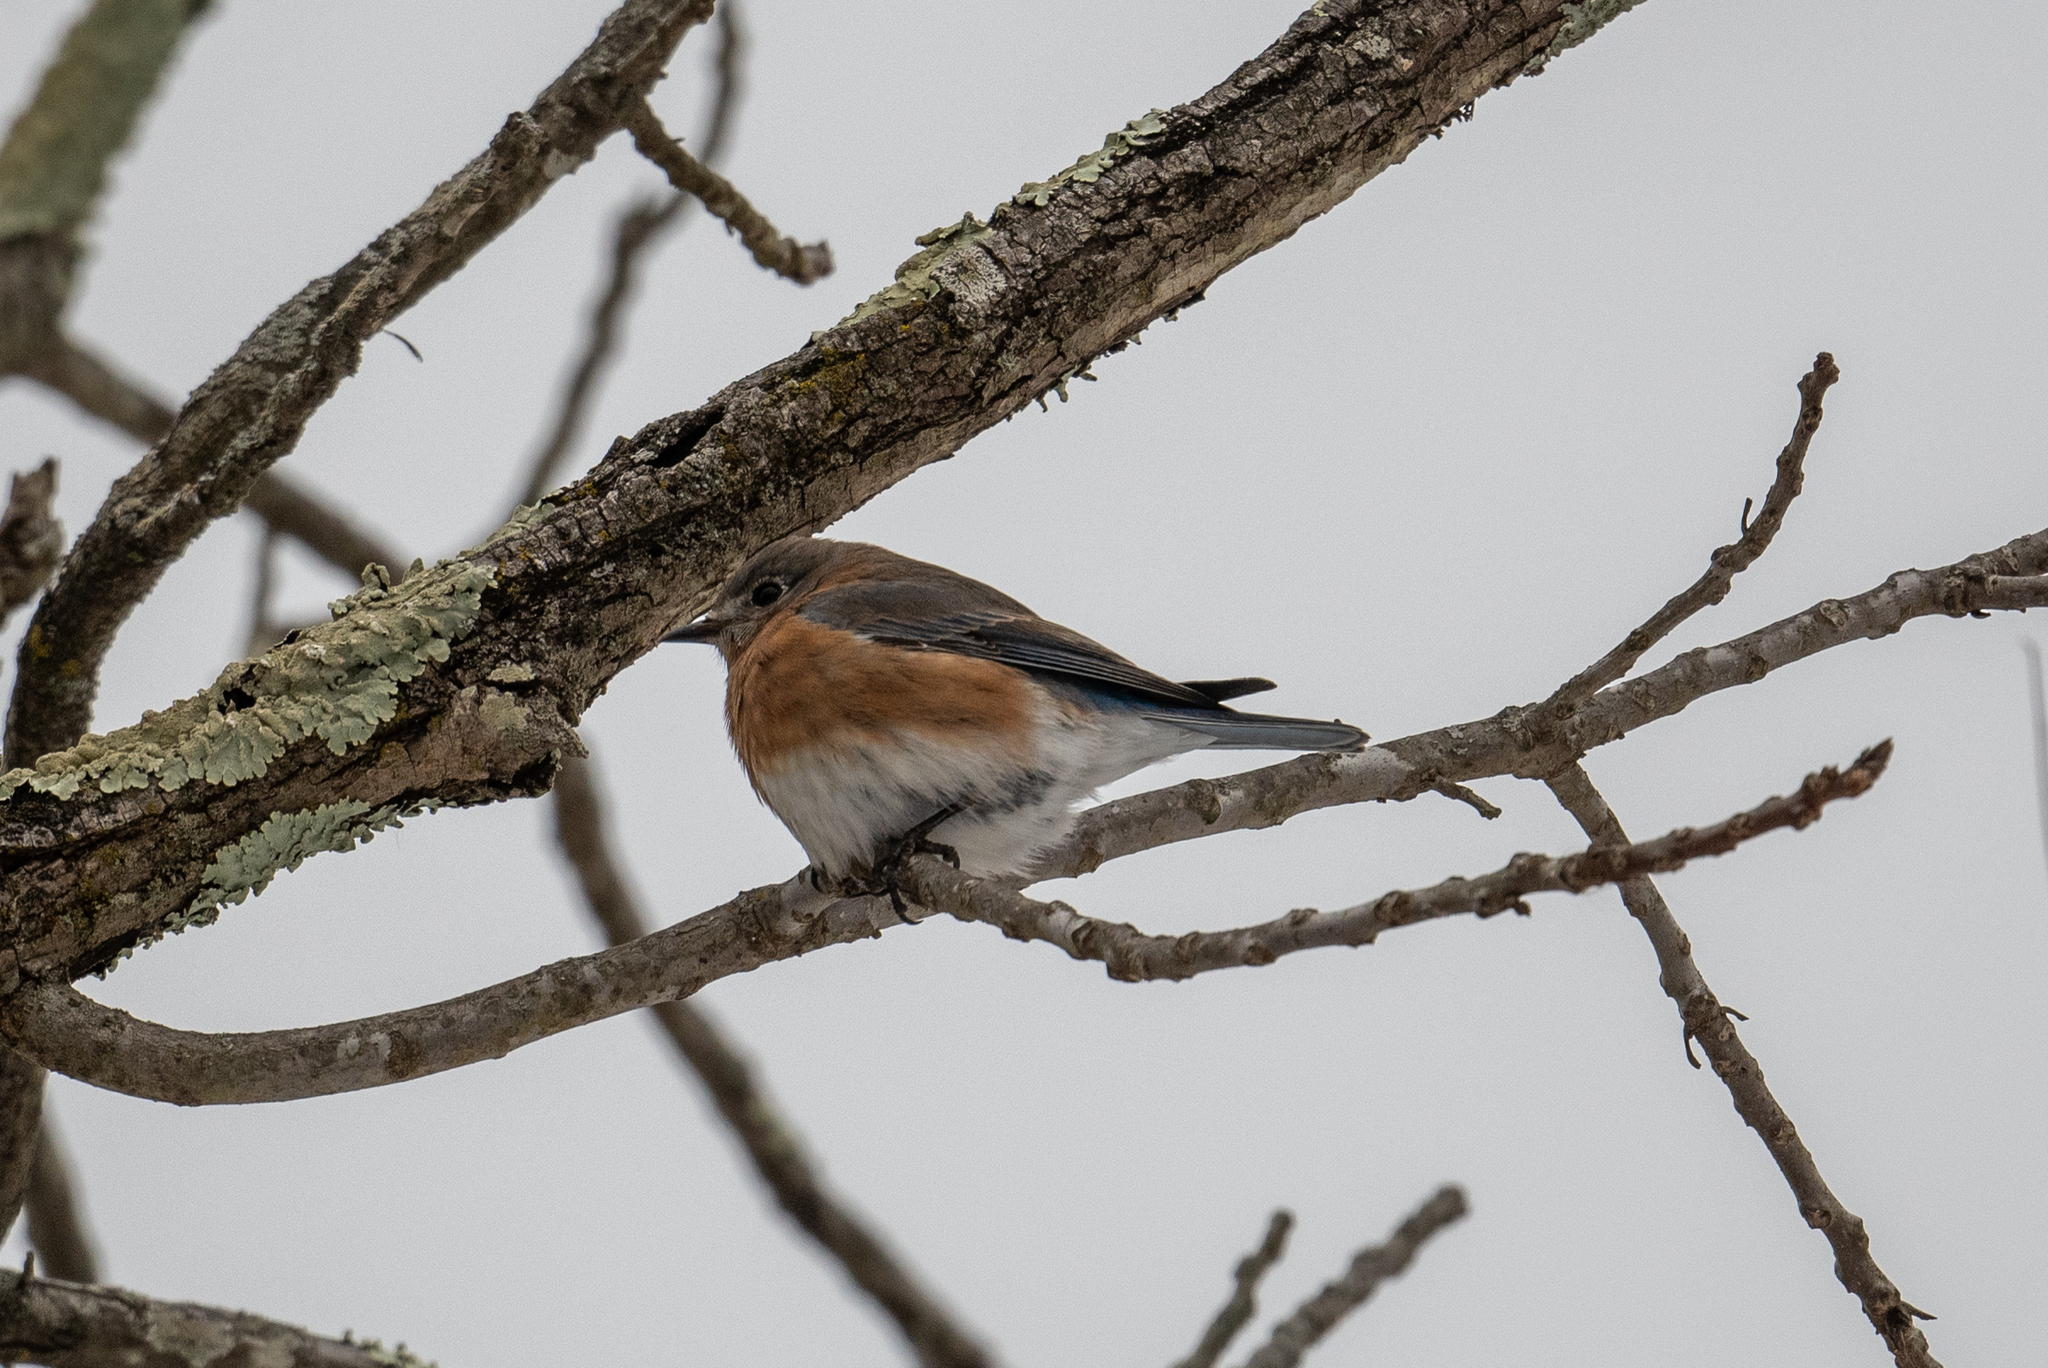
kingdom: Animalia
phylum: Chordata
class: Aves
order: Passeriformes
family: Turdidae
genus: Sialia
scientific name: Sialia sialis
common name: Eastern bluebird
